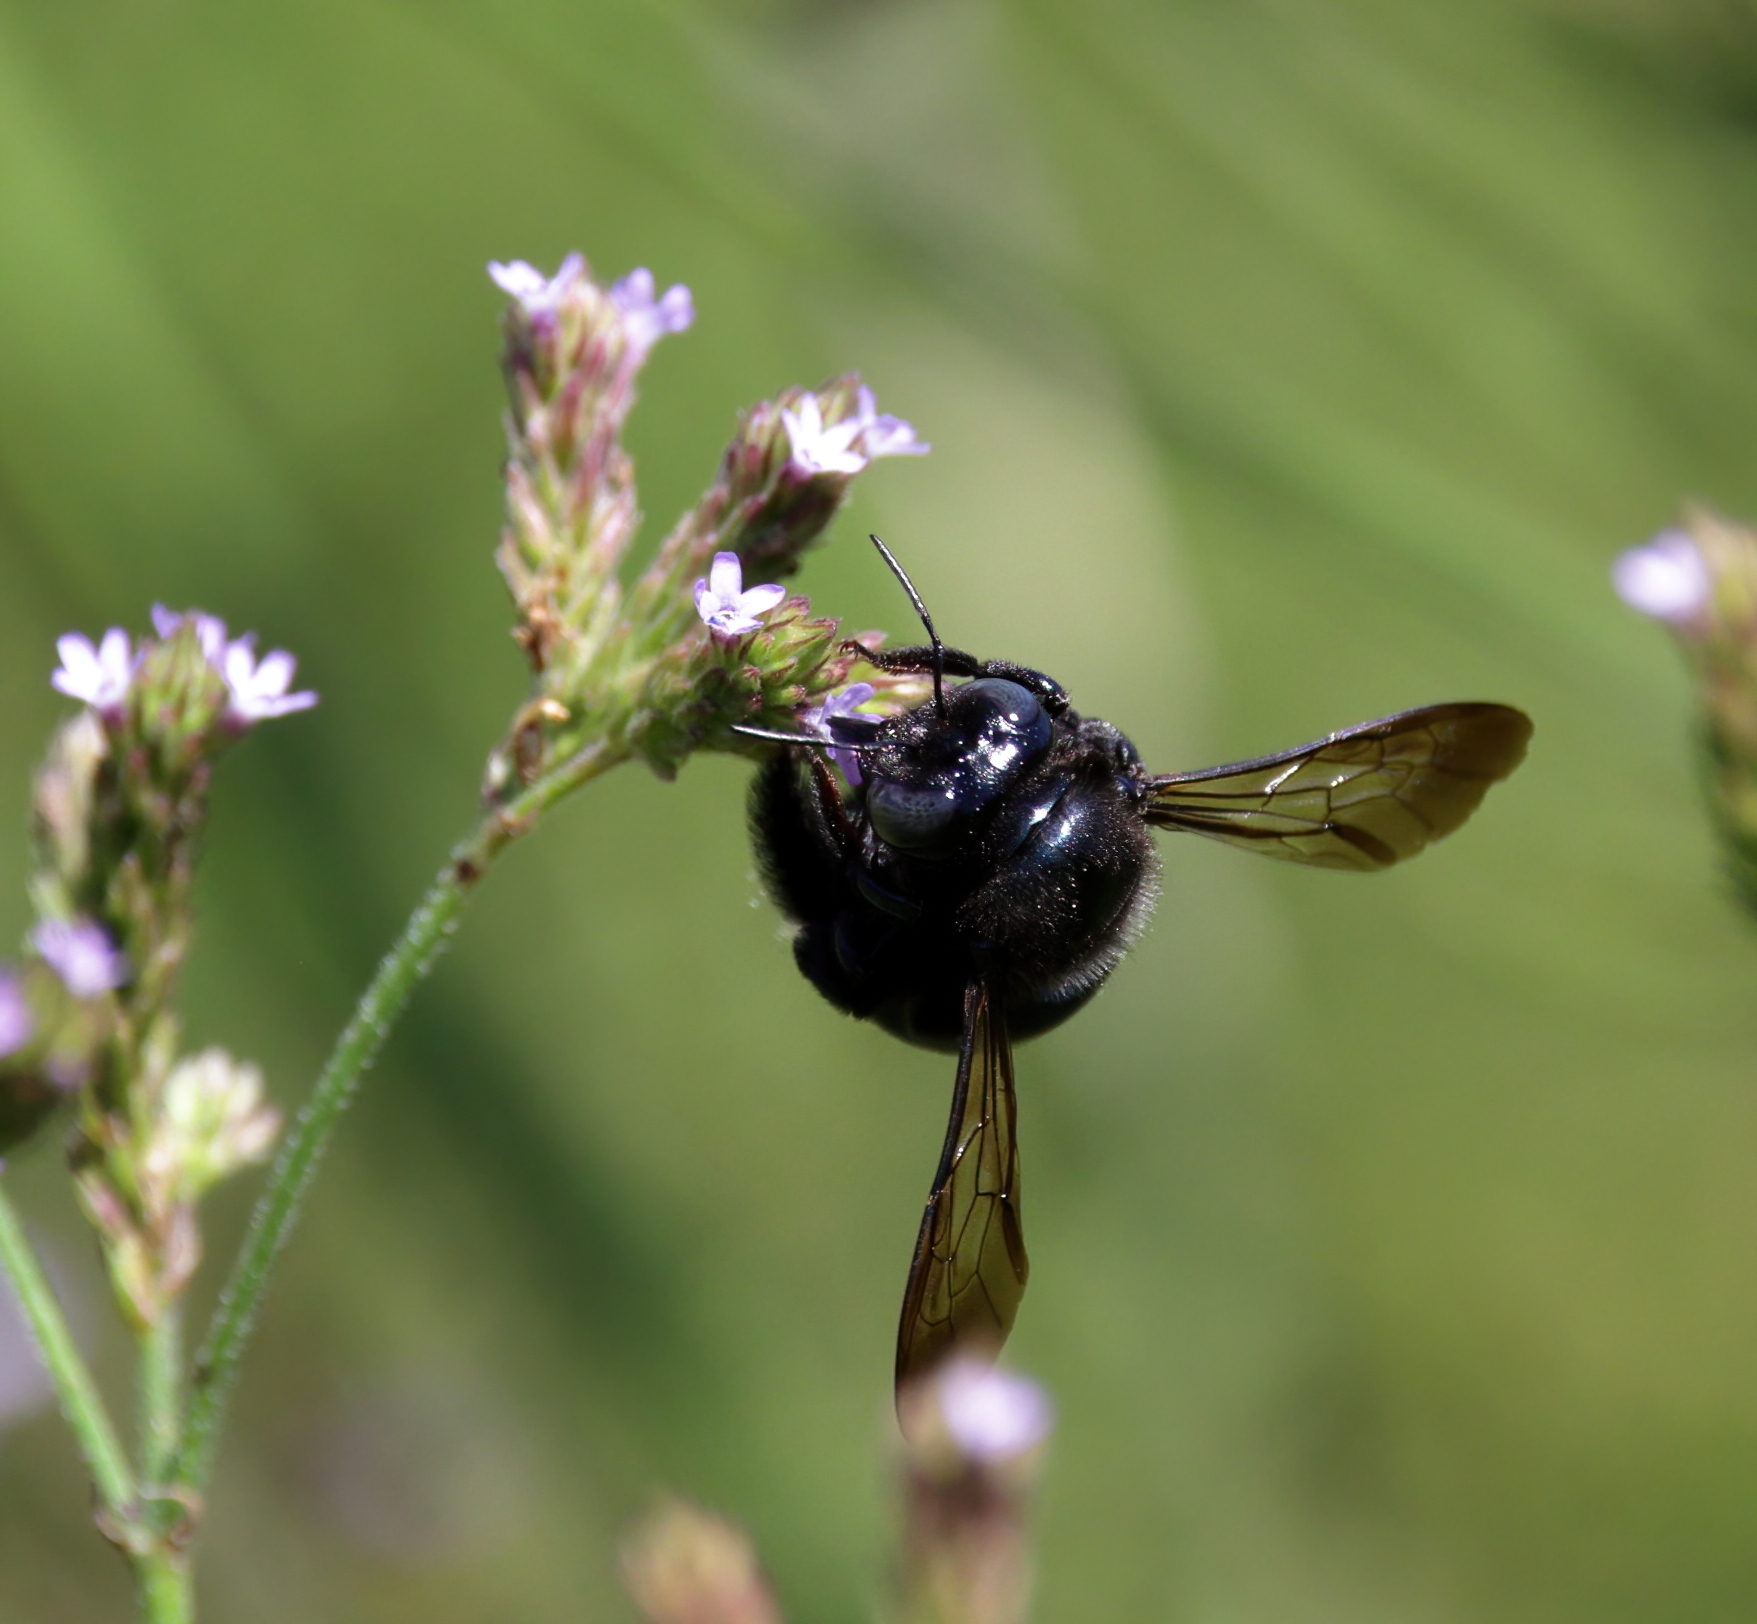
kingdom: Animalia
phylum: Arthropoda
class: Insecta
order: Hymenoptera
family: Apidae
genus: Xylocopa
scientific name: Xylocopa micans
